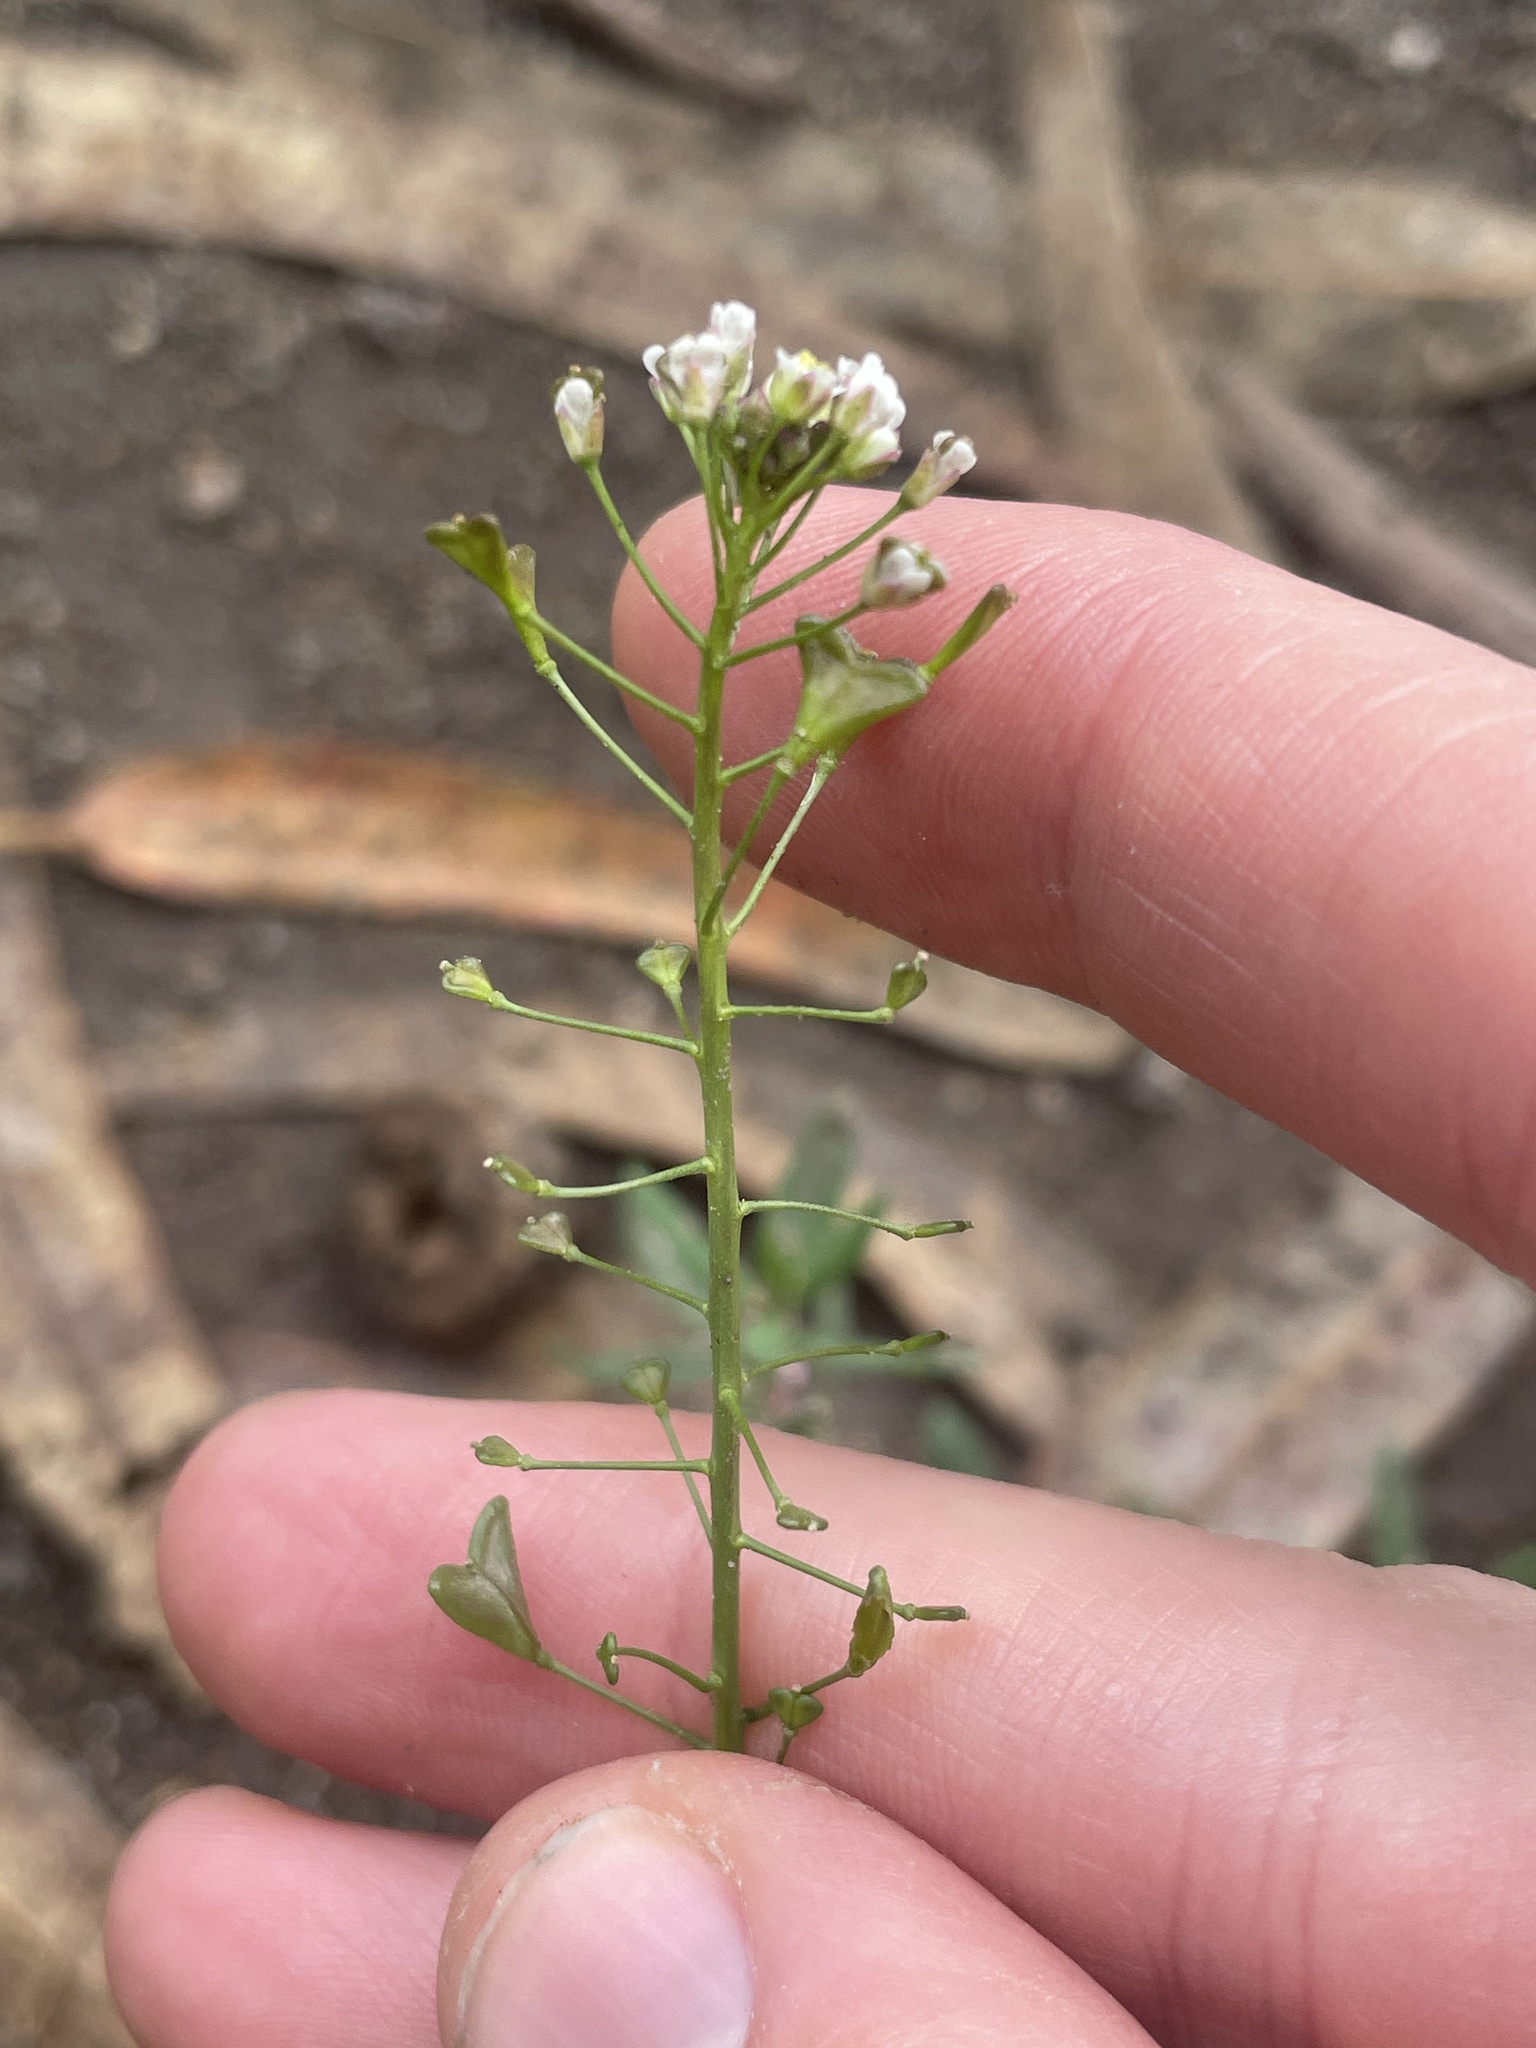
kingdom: Plantae
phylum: Tracheophyta
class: Magnoliopsida
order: Brassicales
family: Brassicaceae
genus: Capsella
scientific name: Capsella bursa-pastoris
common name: Shepherd's purse
